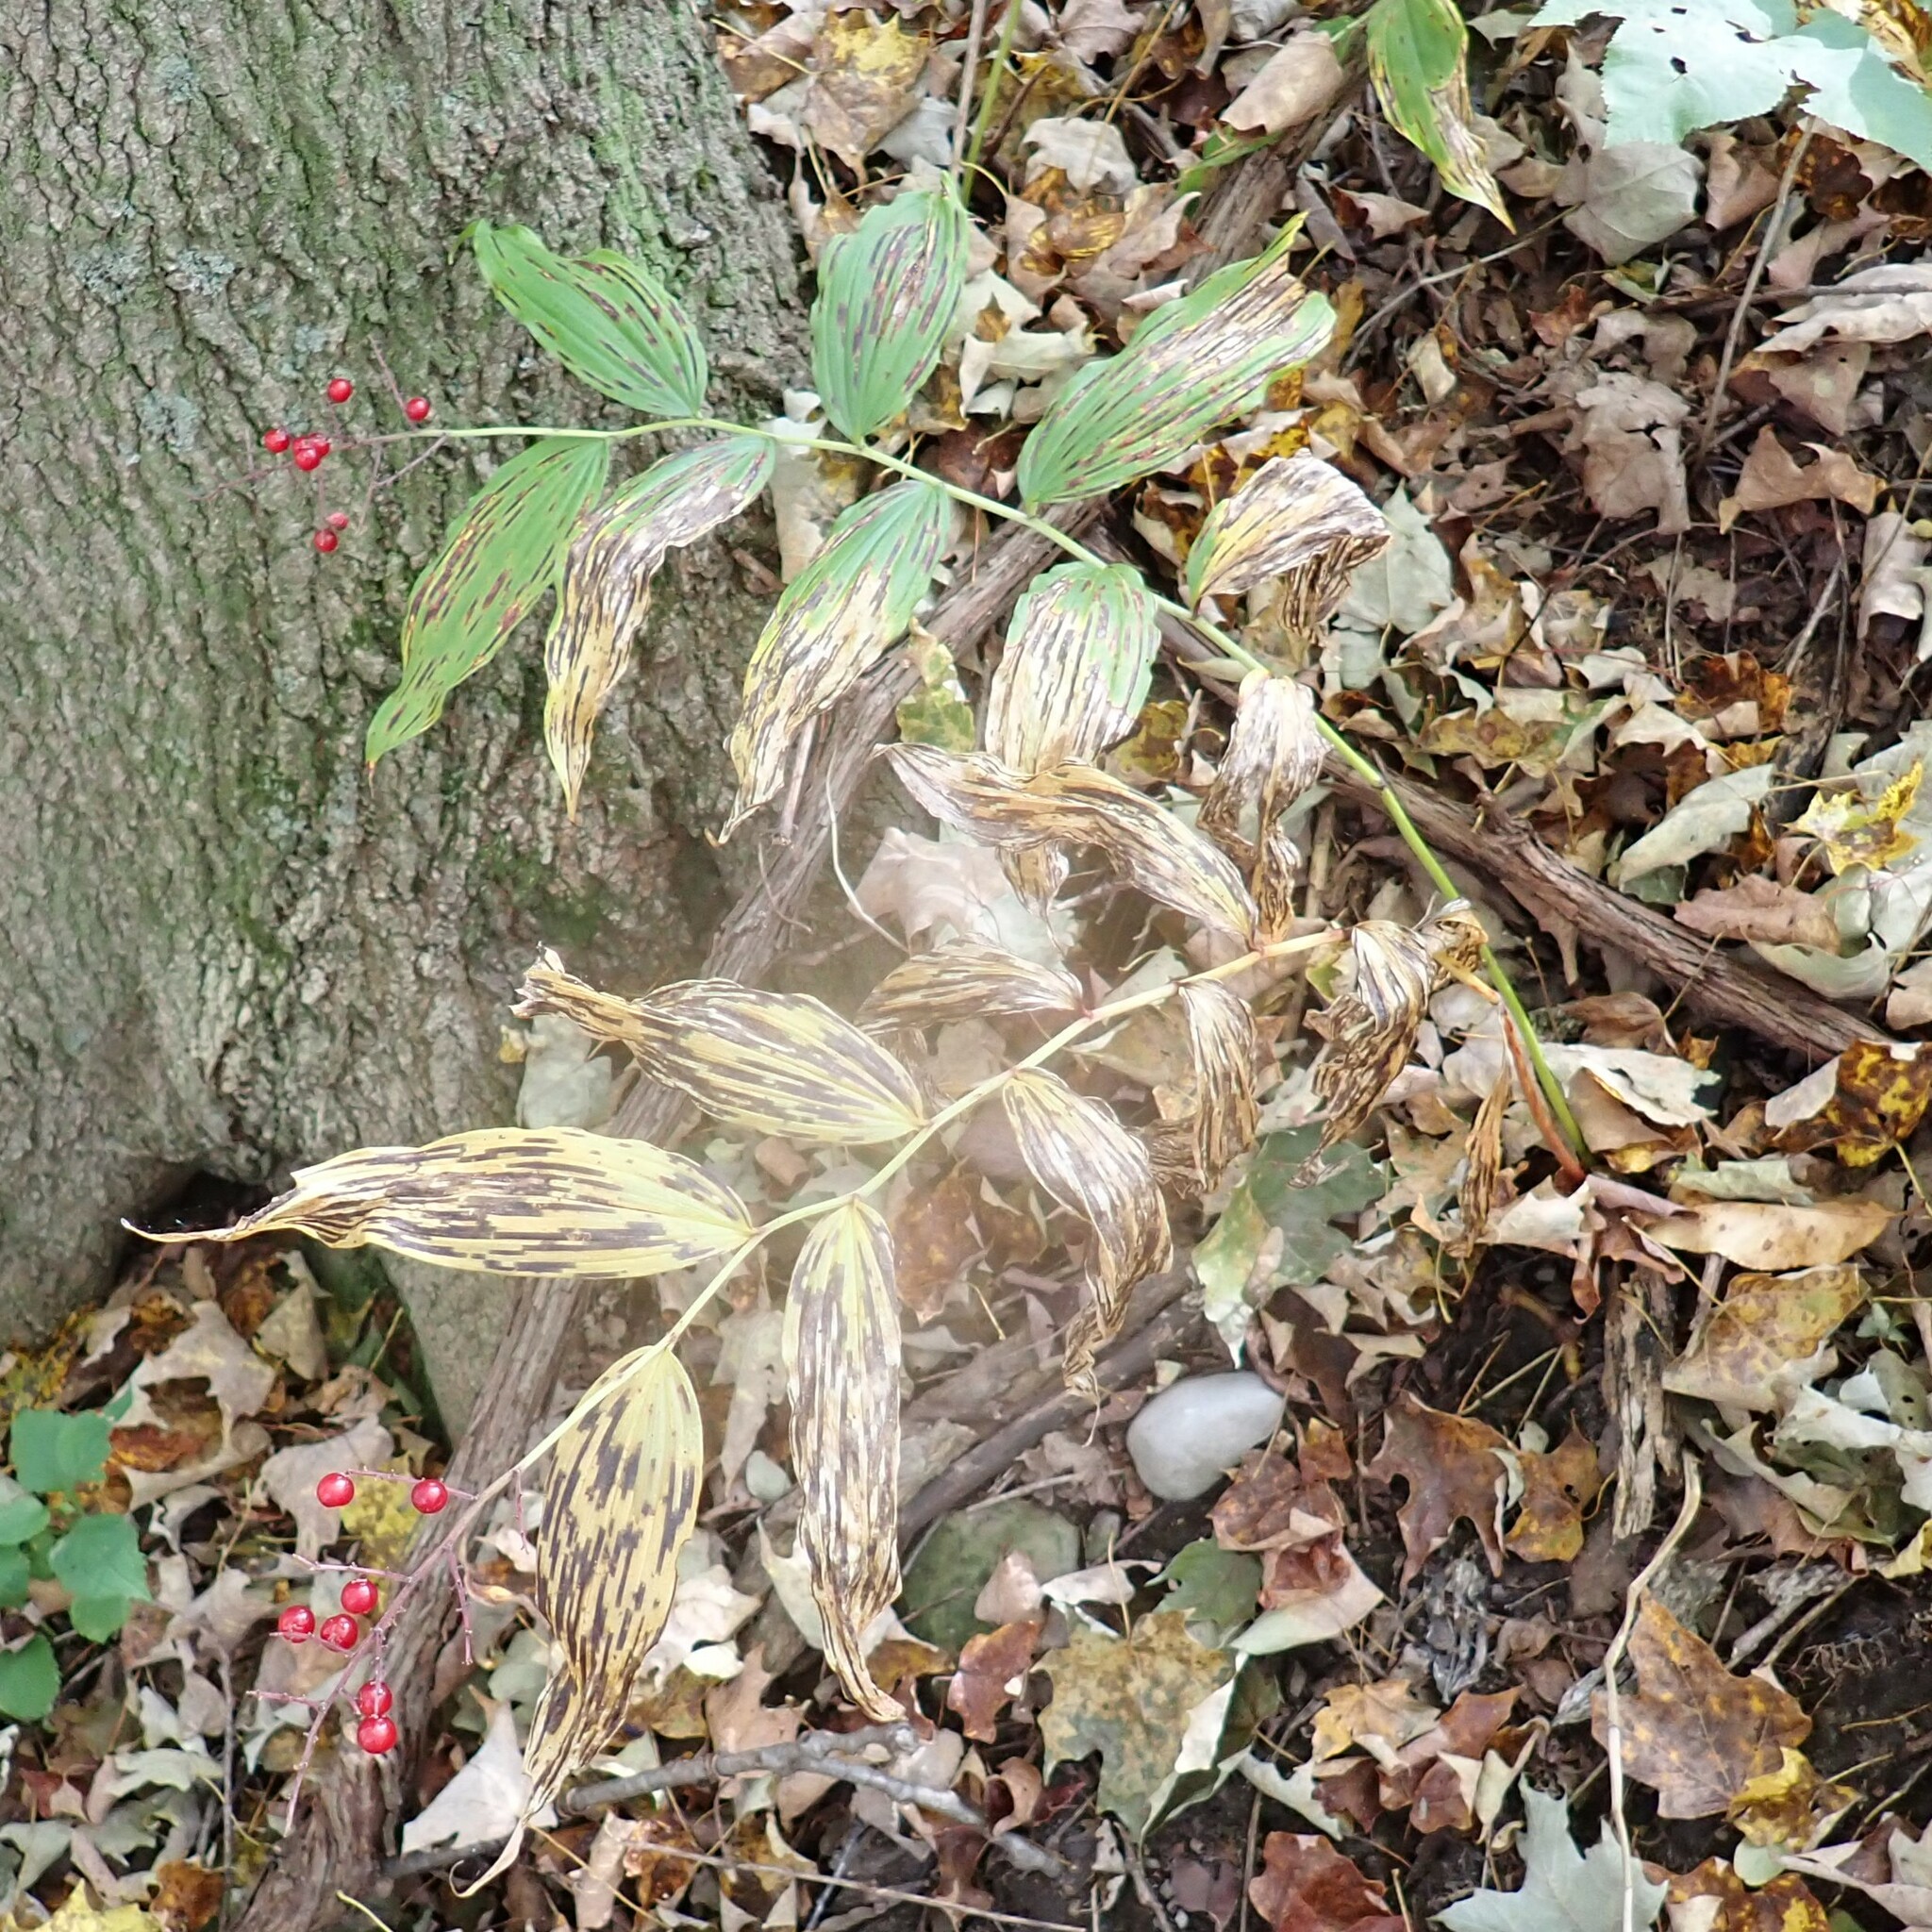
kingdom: Plantae
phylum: Tracheophyta
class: Liliopsida
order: Asparagales
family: Asparagaceae
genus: Maianthemum
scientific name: Maianthemum racemosum
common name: False spikenard
